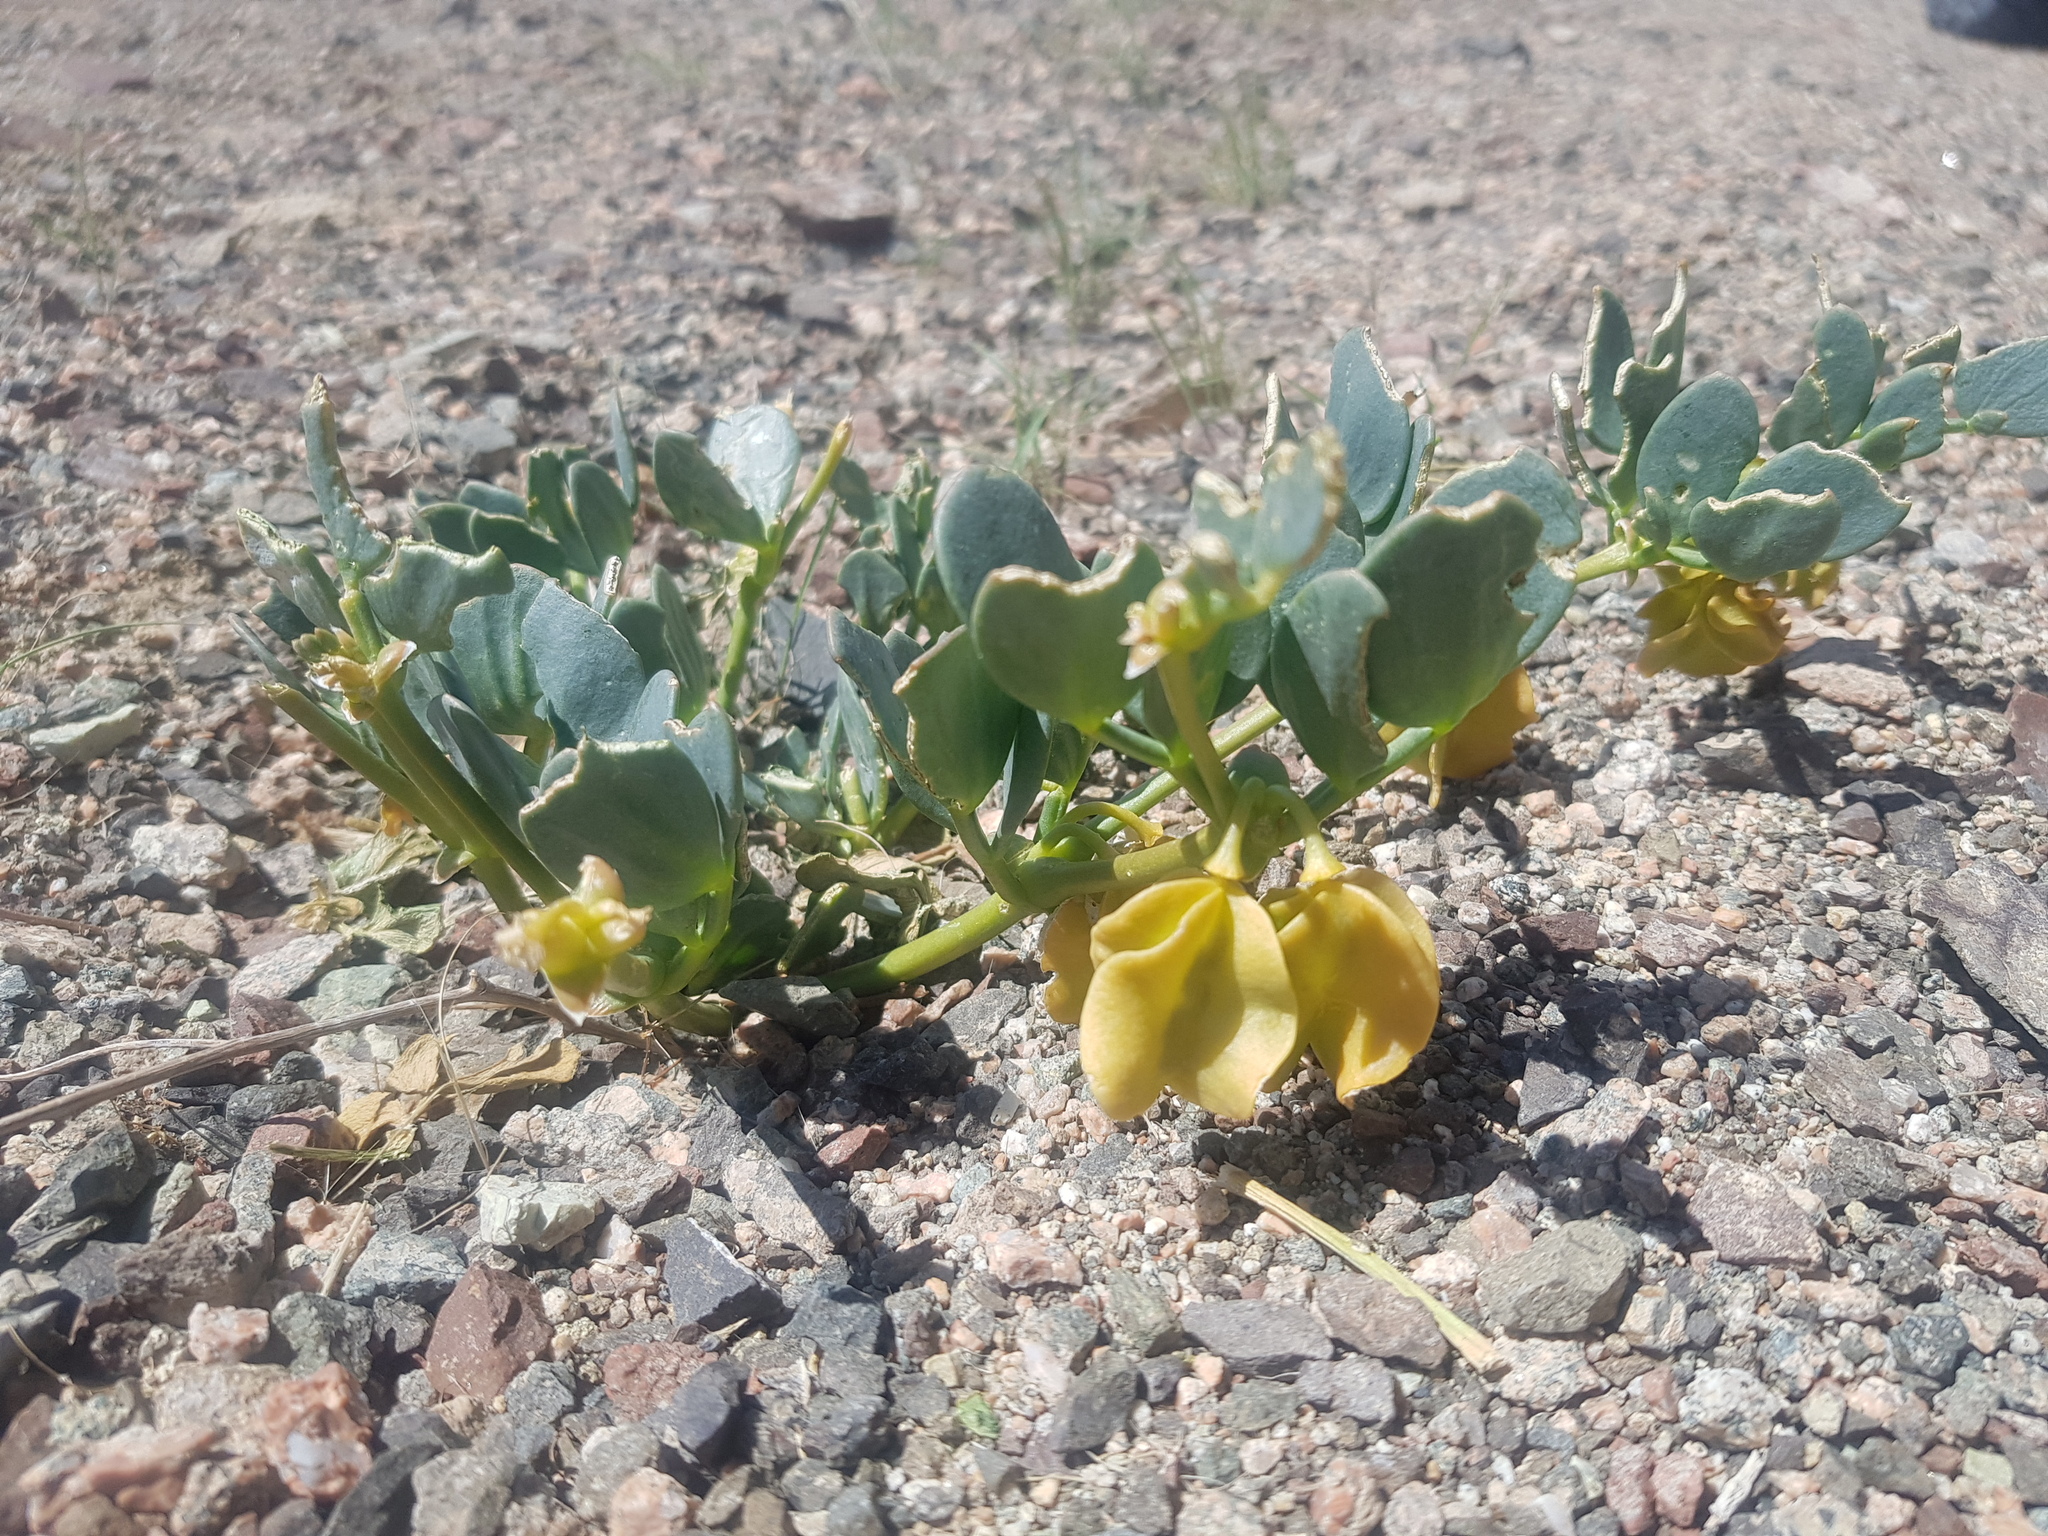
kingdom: Plantae
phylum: Tracheophyta
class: Magnoliopsida
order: Zygophyllales
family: Zygophyllaceae
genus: Zygophyllum
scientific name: Zygophyllum potaninii
